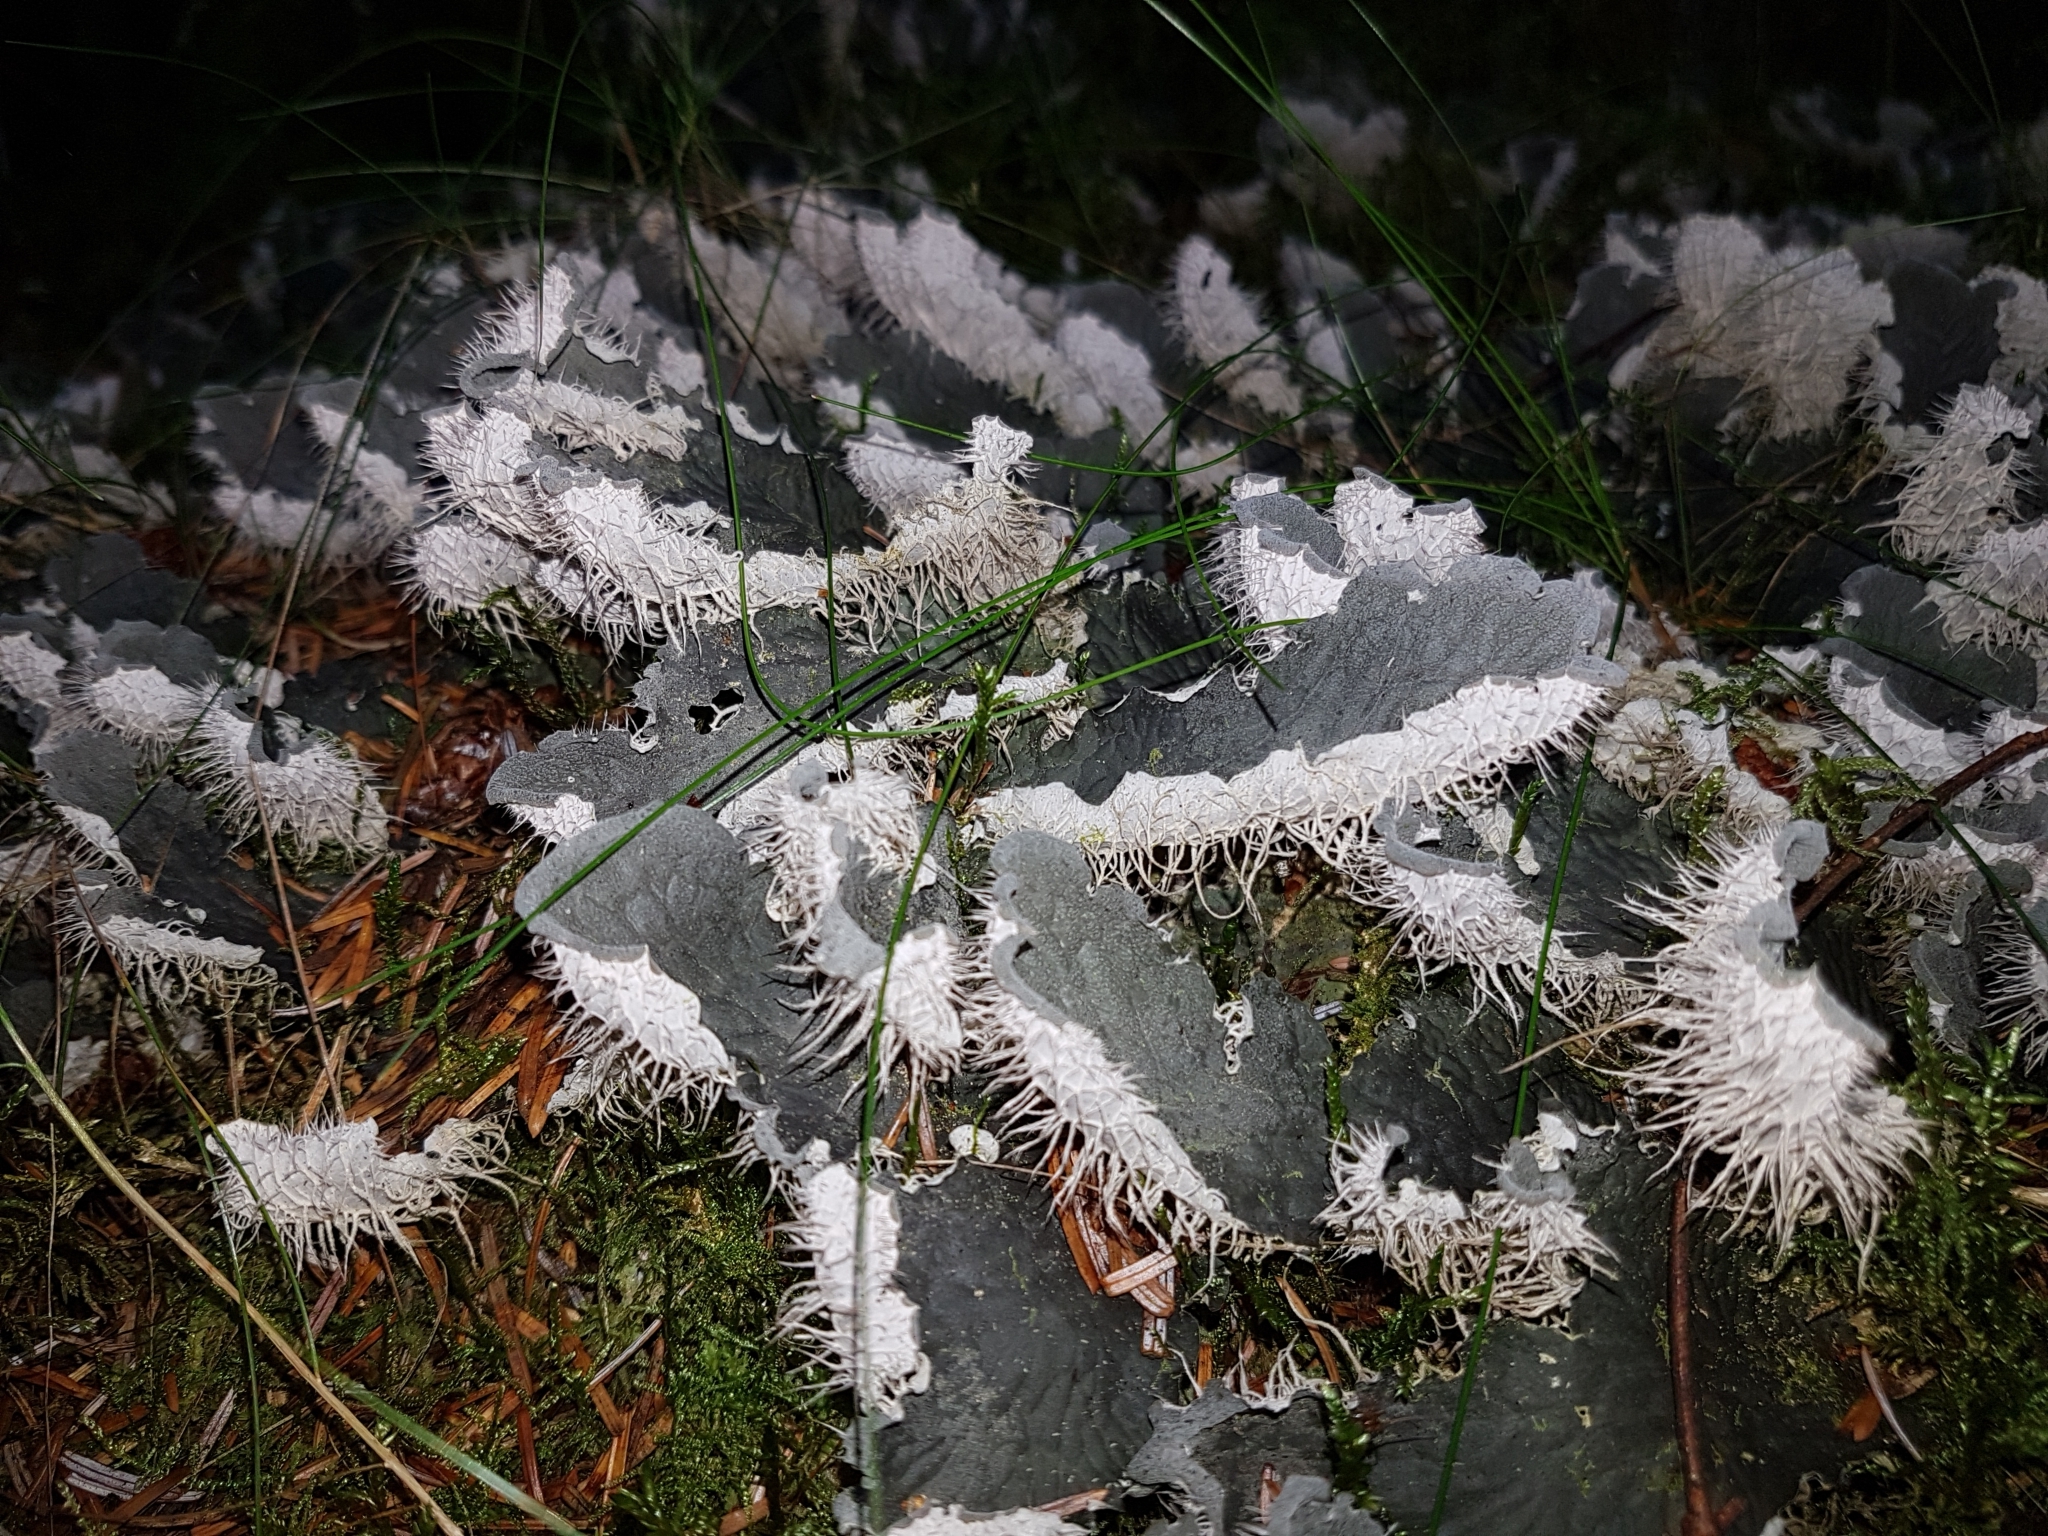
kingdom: Fungi
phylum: Ascomycota
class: Lecanoromycetes
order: Peltigerales
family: Peltigeraceae
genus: Peltigera
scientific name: Peltigera membranacea
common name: Membranous pelt lichen
